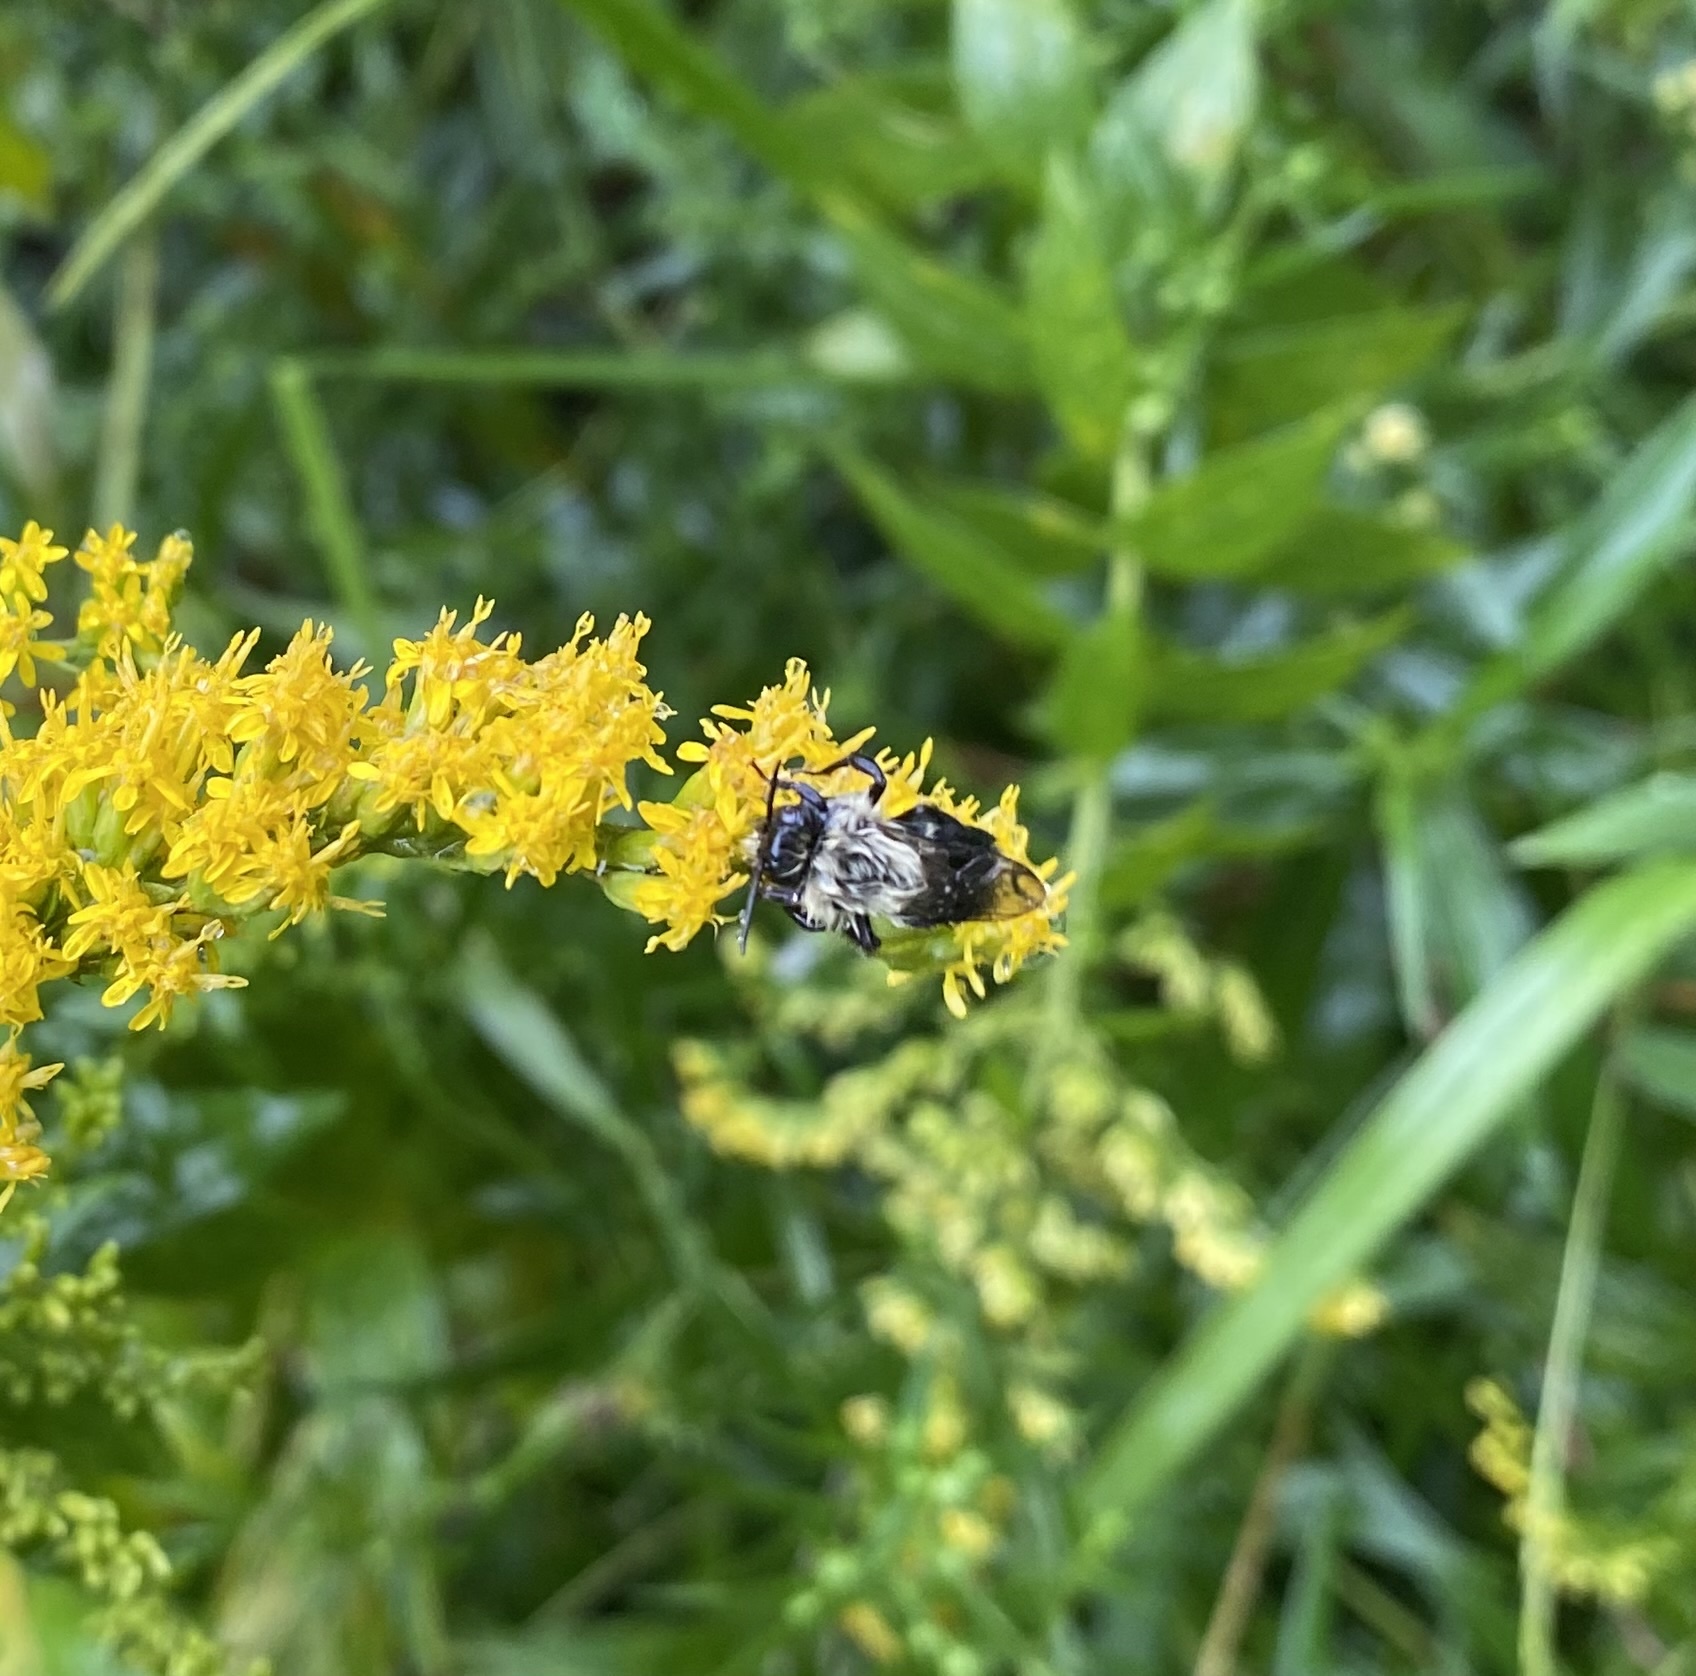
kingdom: Animalia
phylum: Arthropoda
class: Insecta
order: Hymenoptera
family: Apidae
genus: Bombus
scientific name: Bombus impatiens
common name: Common eastern bumble bee
